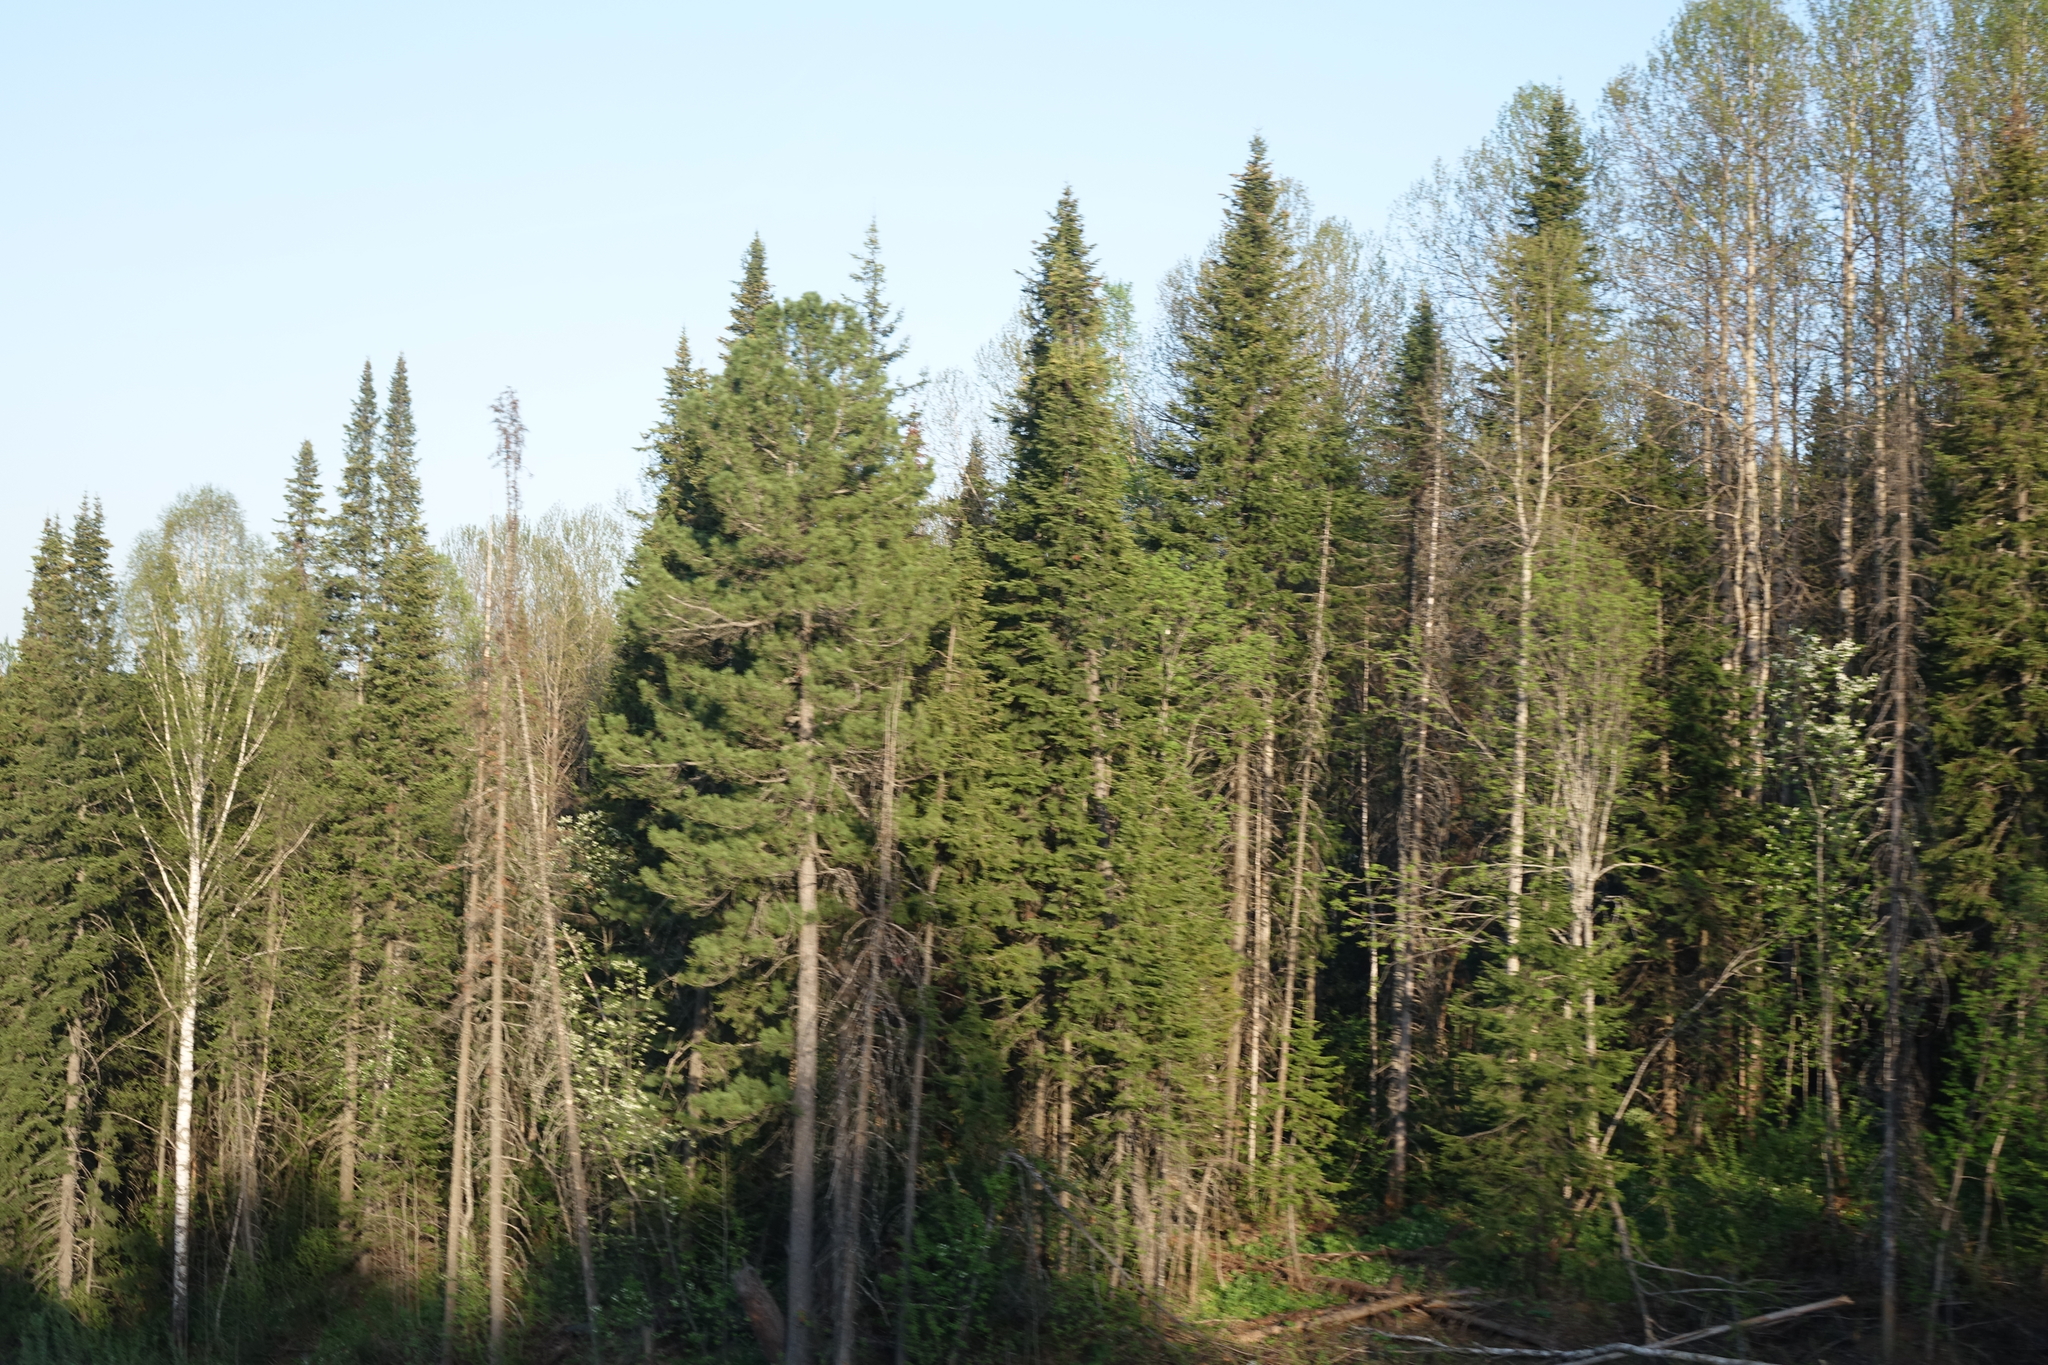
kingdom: Plantae
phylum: Tracheophyta
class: Pinopsida
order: Pinales
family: Pinaceae
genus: Abies
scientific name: Abies sibirica
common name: Siberian fir
